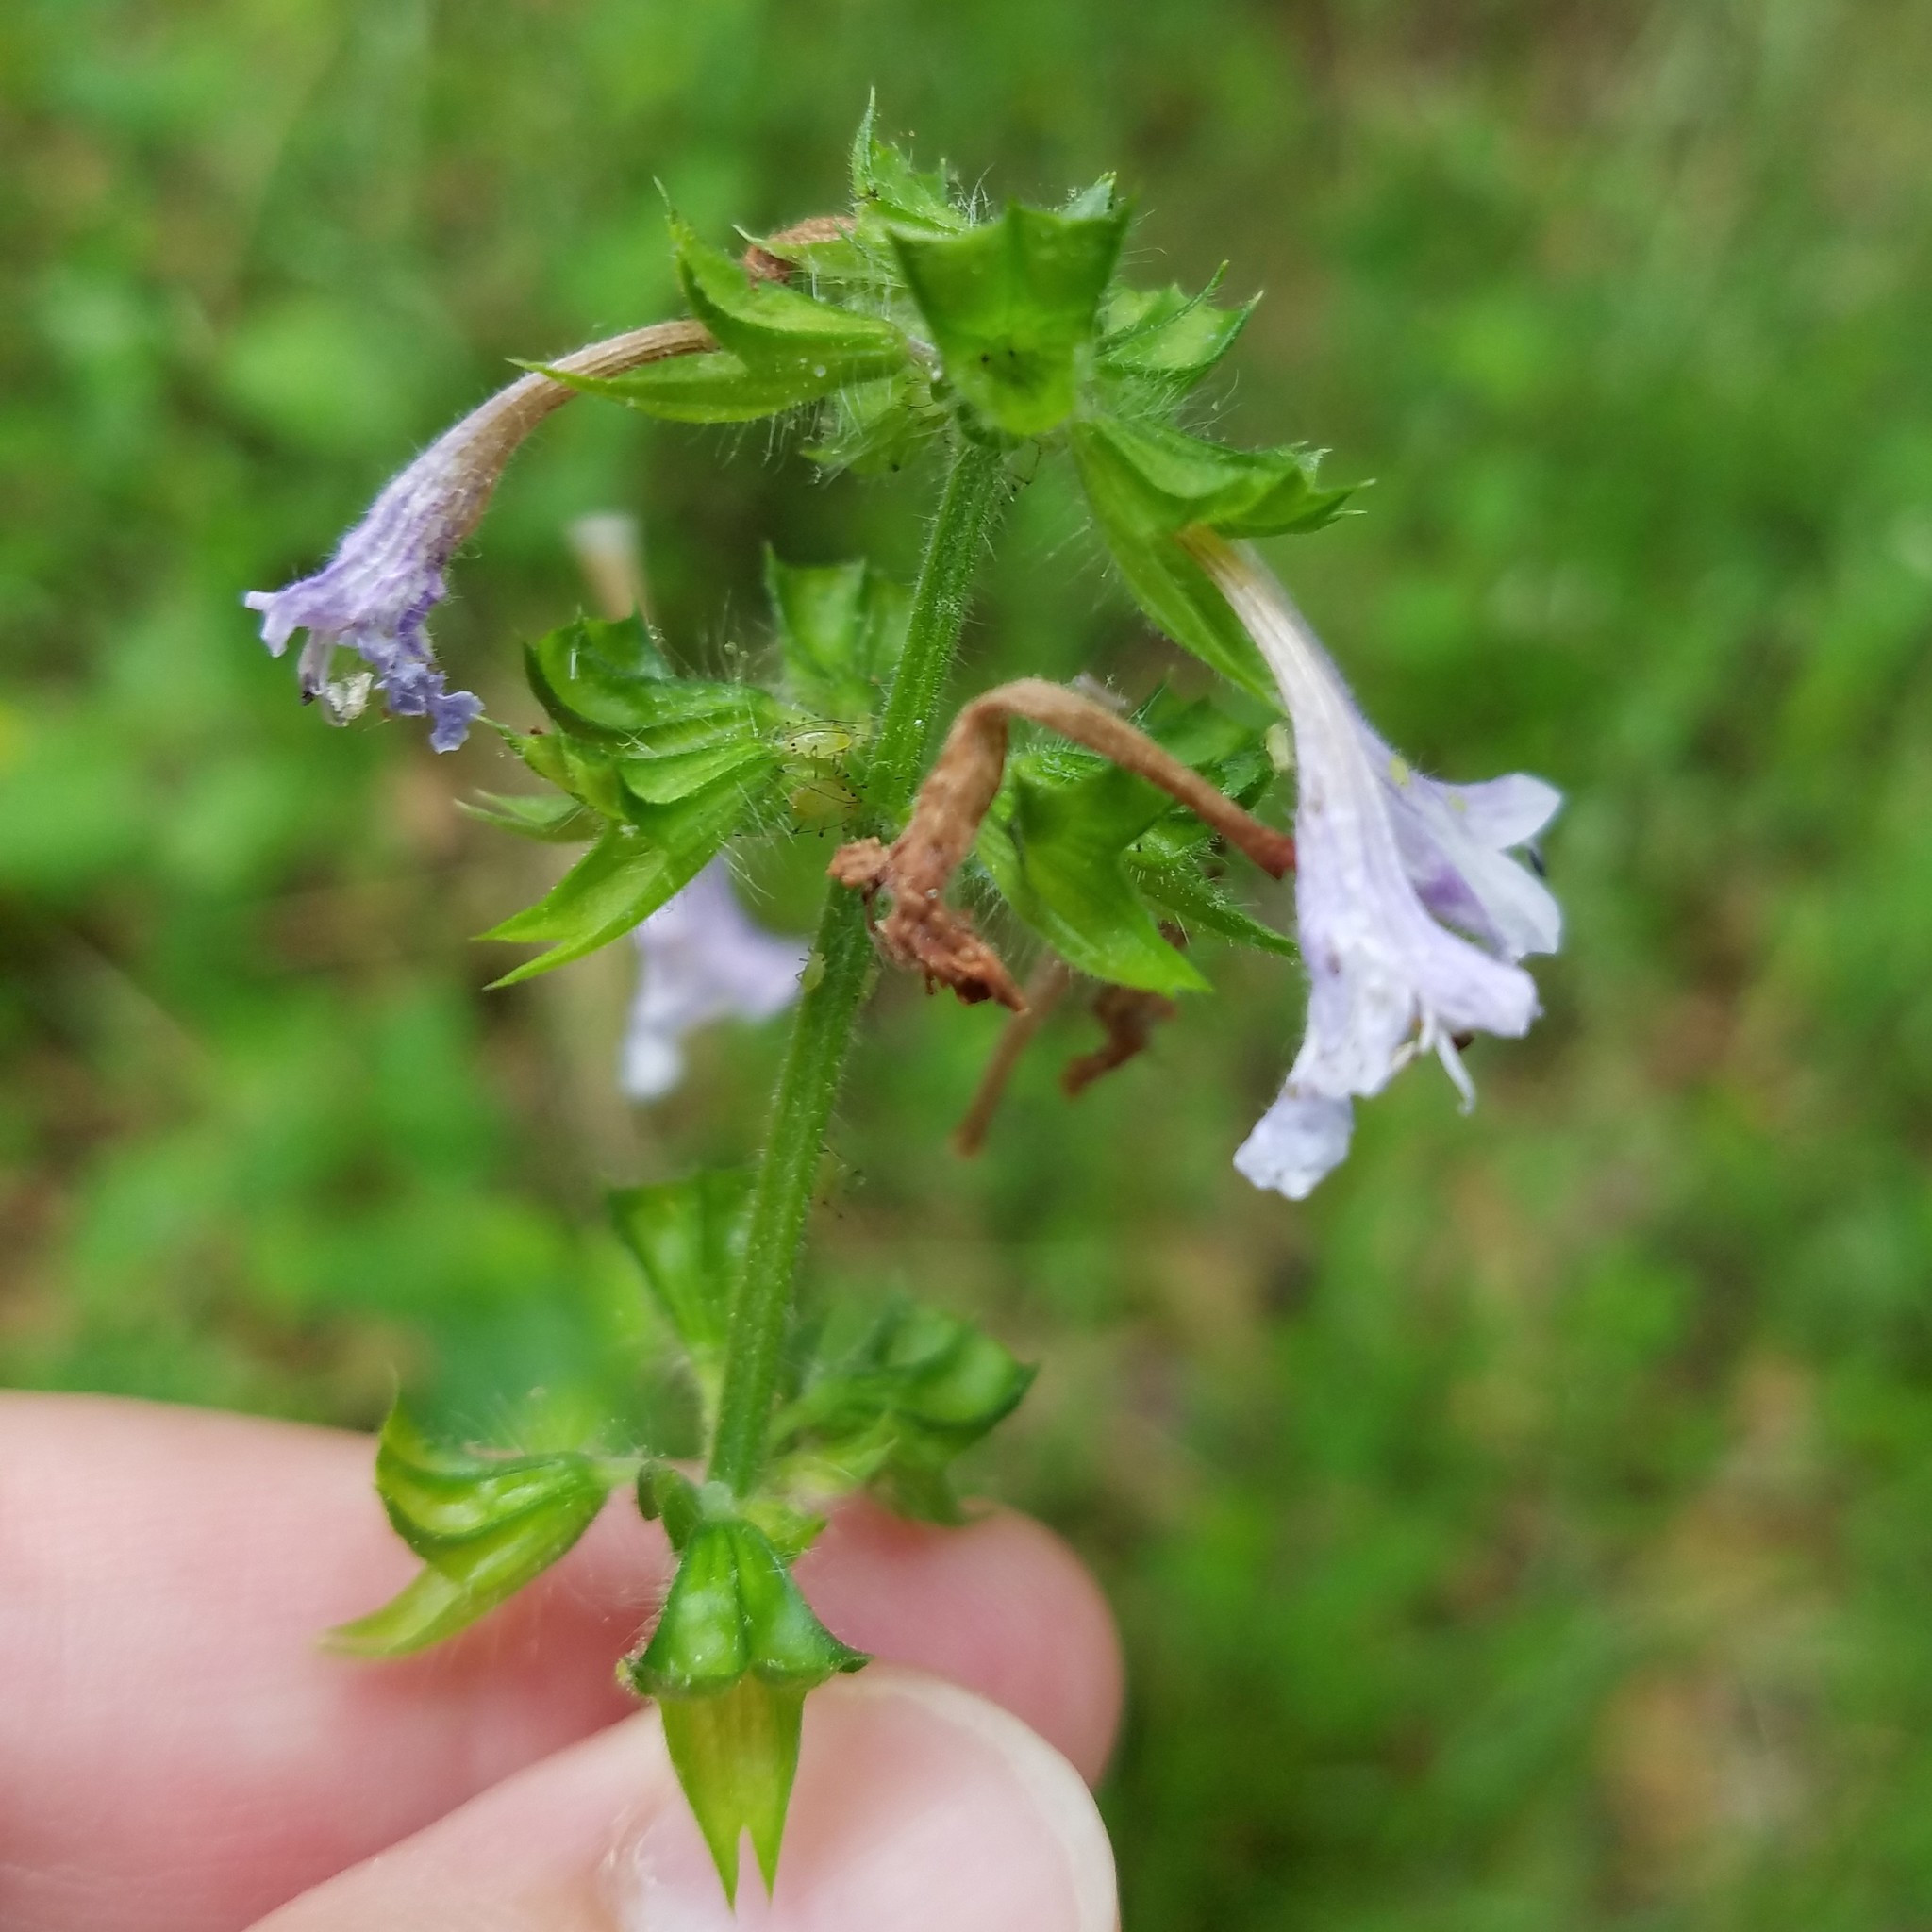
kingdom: Plantae
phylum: Tracheophyta
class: Magnoliopsida
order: Lamiales
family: Lamiaceae
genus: Salvia
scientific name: Salvia lyrata
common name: Cancerweed
